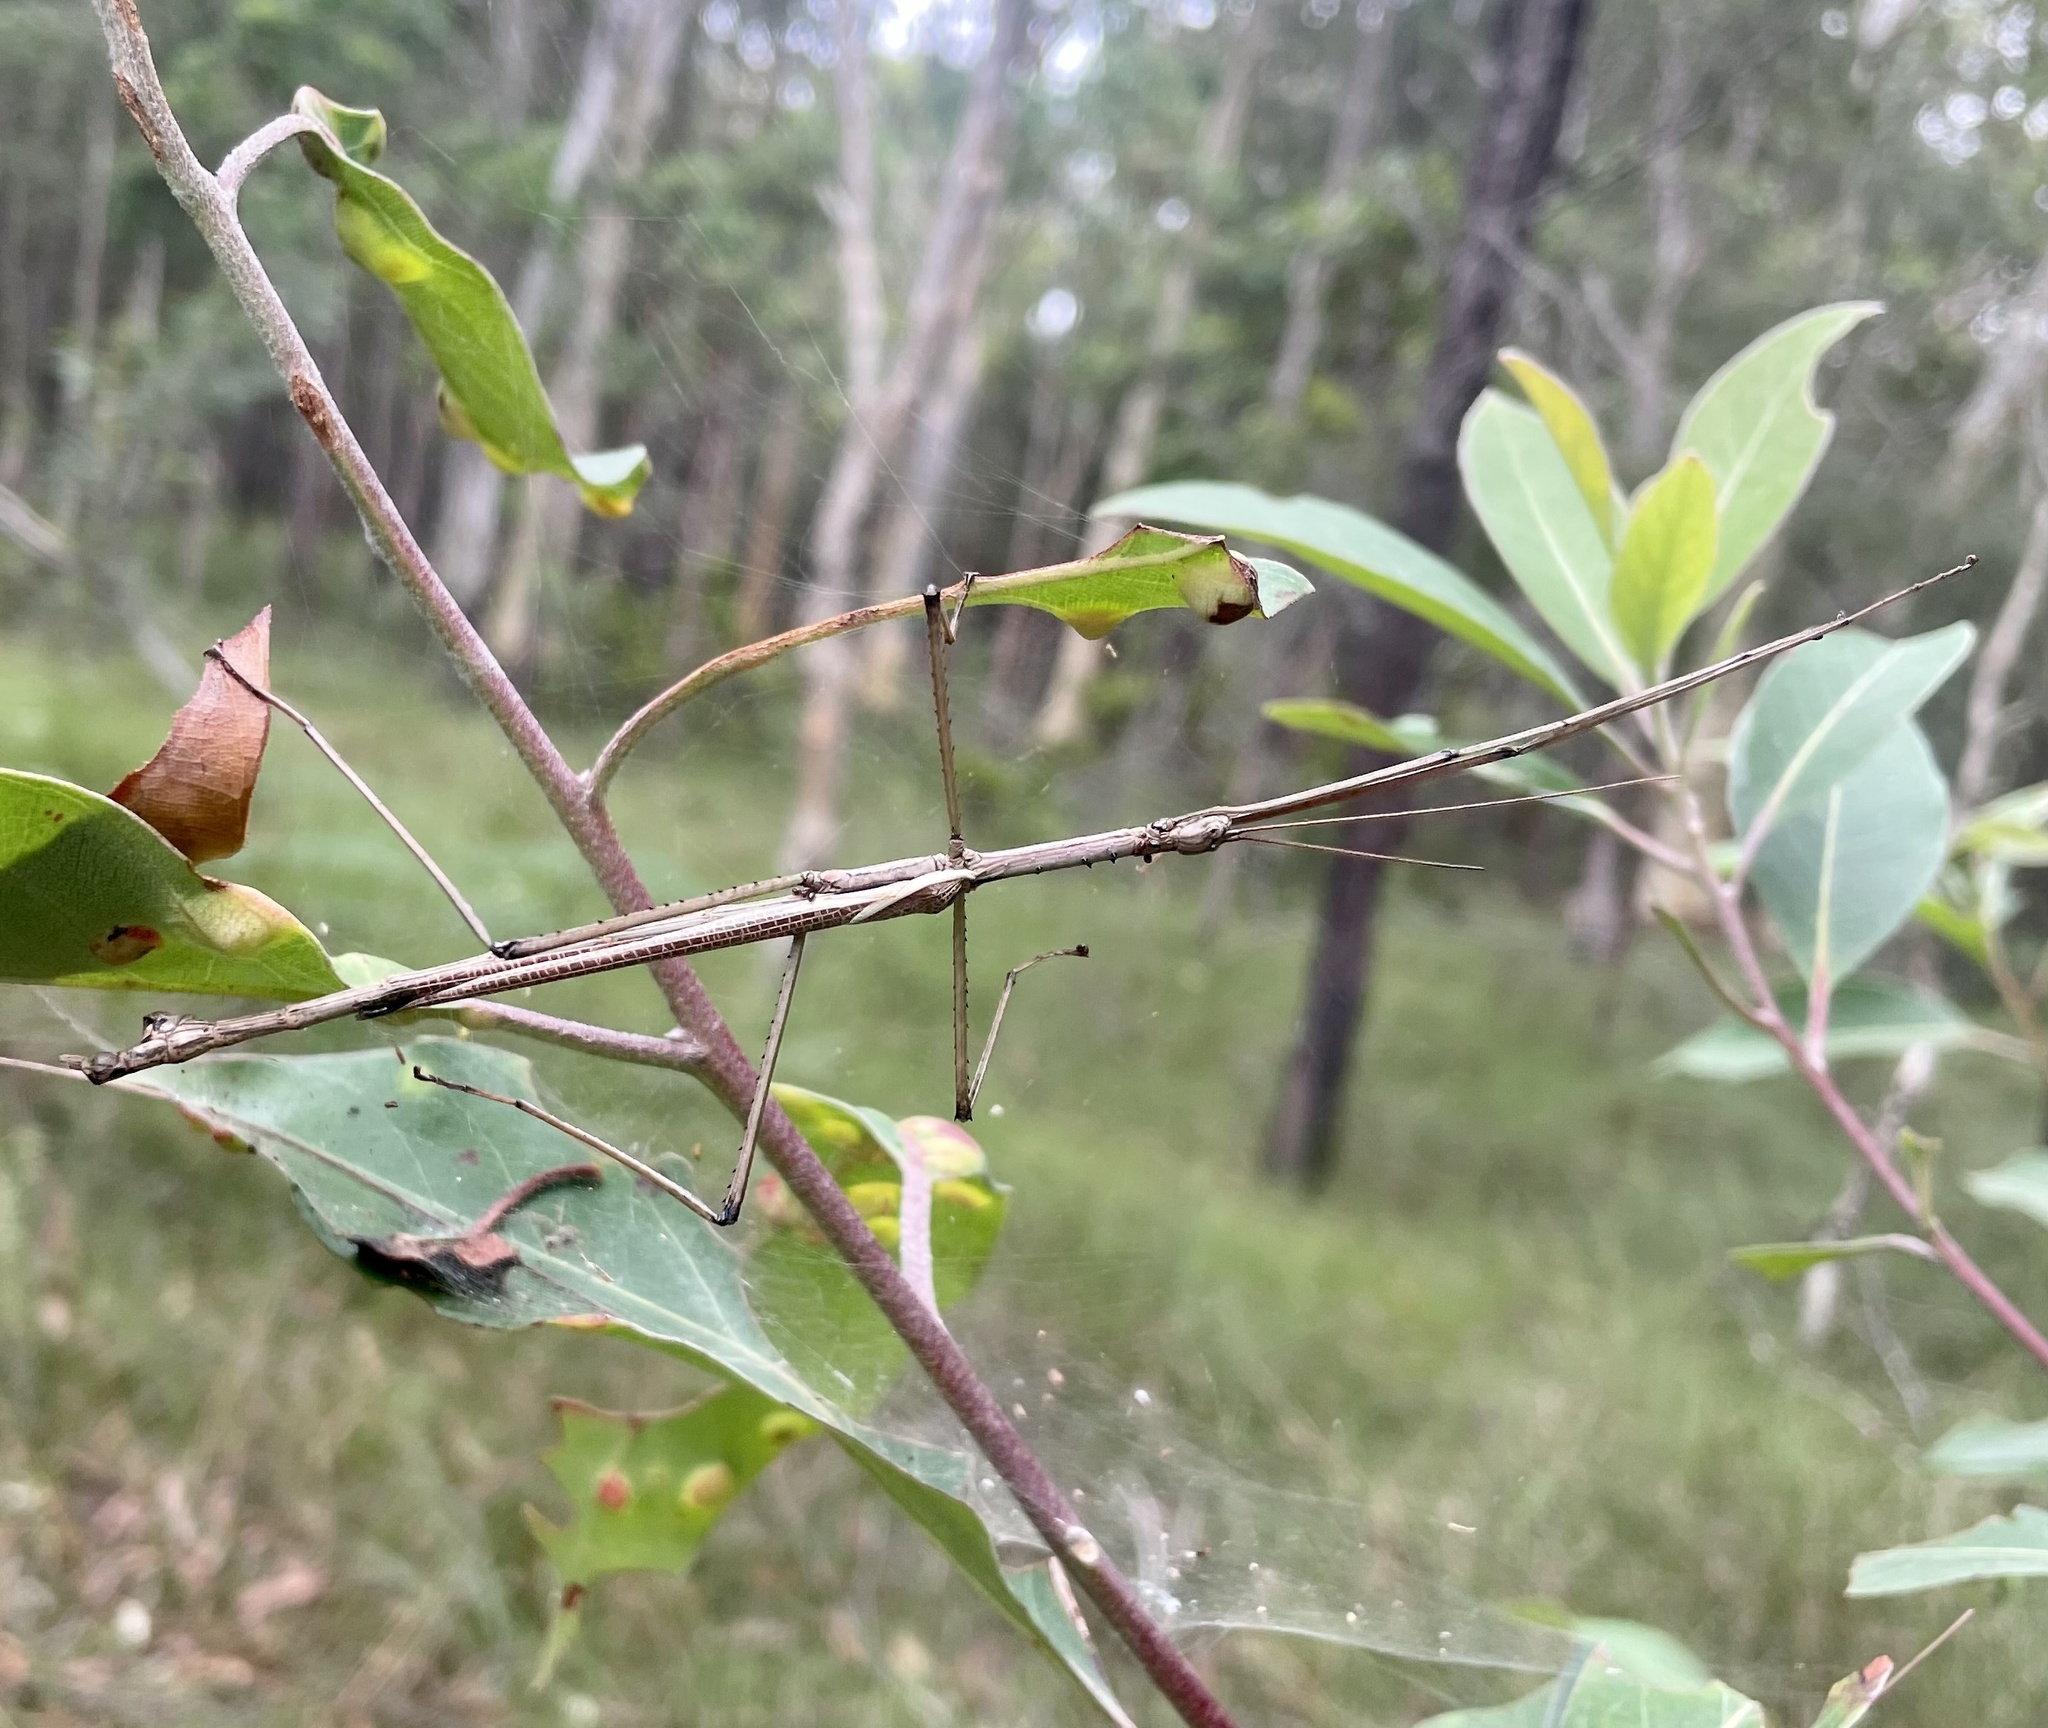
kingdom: Animalia
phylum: Arthropoda
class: Insecta
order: Phasmida
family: Phasmatidae
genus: Anchiale
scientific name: Anchiale austrotessulata
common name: Tessellated stick-insect
